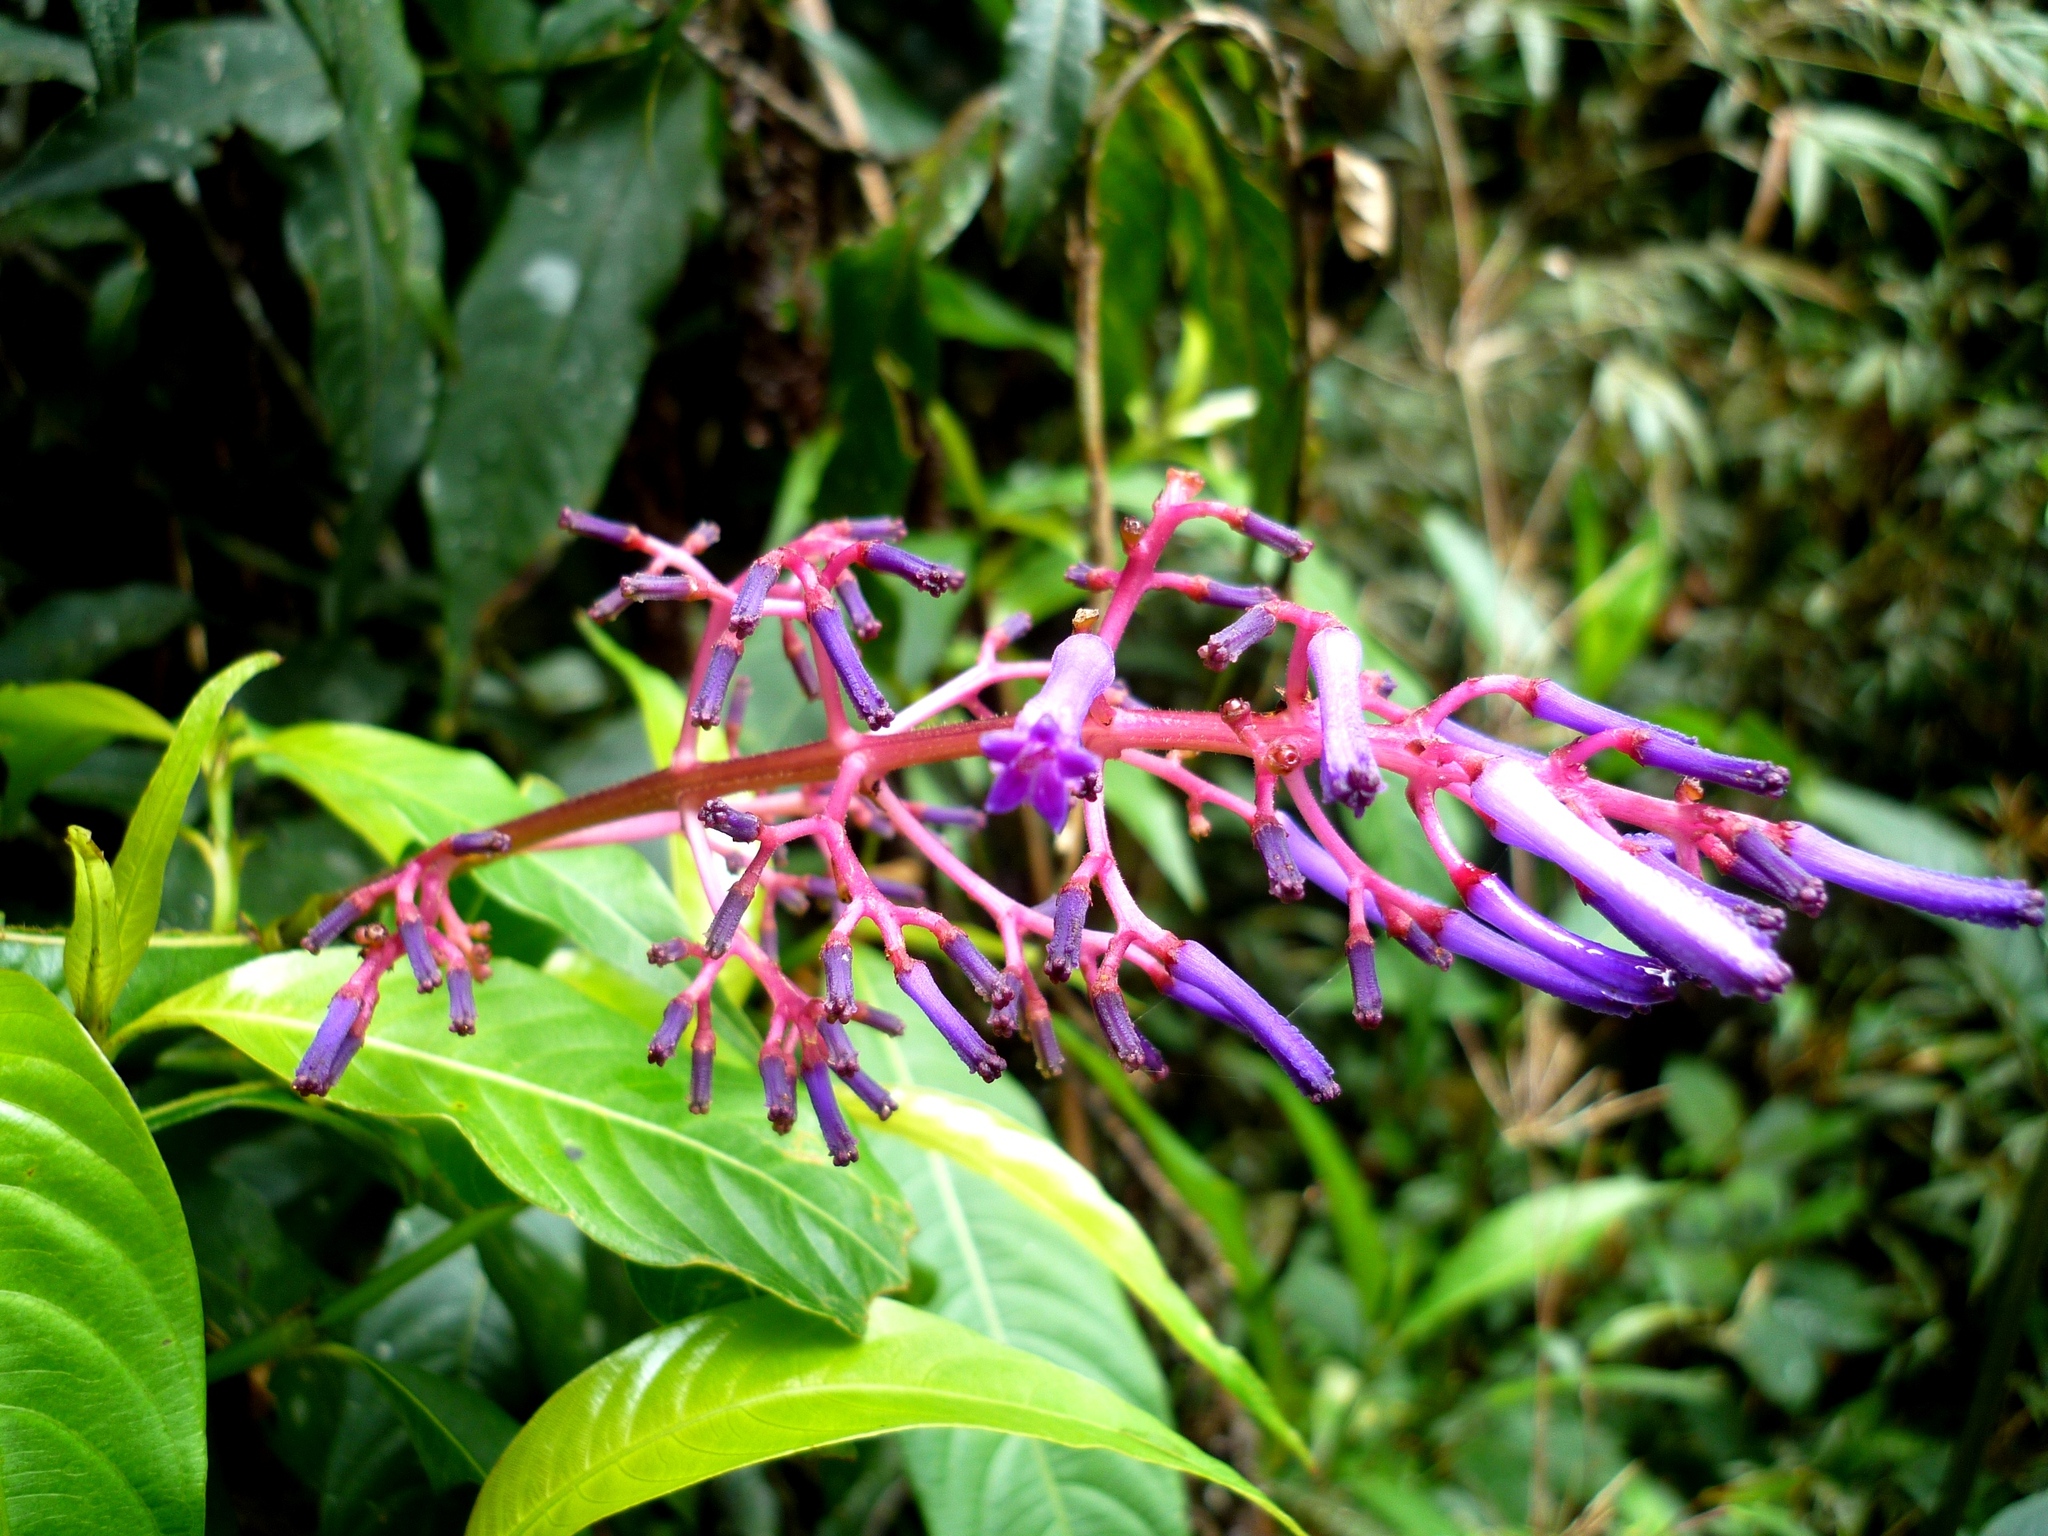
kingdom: Plantae
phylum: Tracheophyta
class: Magnoliopsida
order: Gentianales
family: Rubiaceae
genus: Palicourea
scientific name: Palicourea angustifolia
